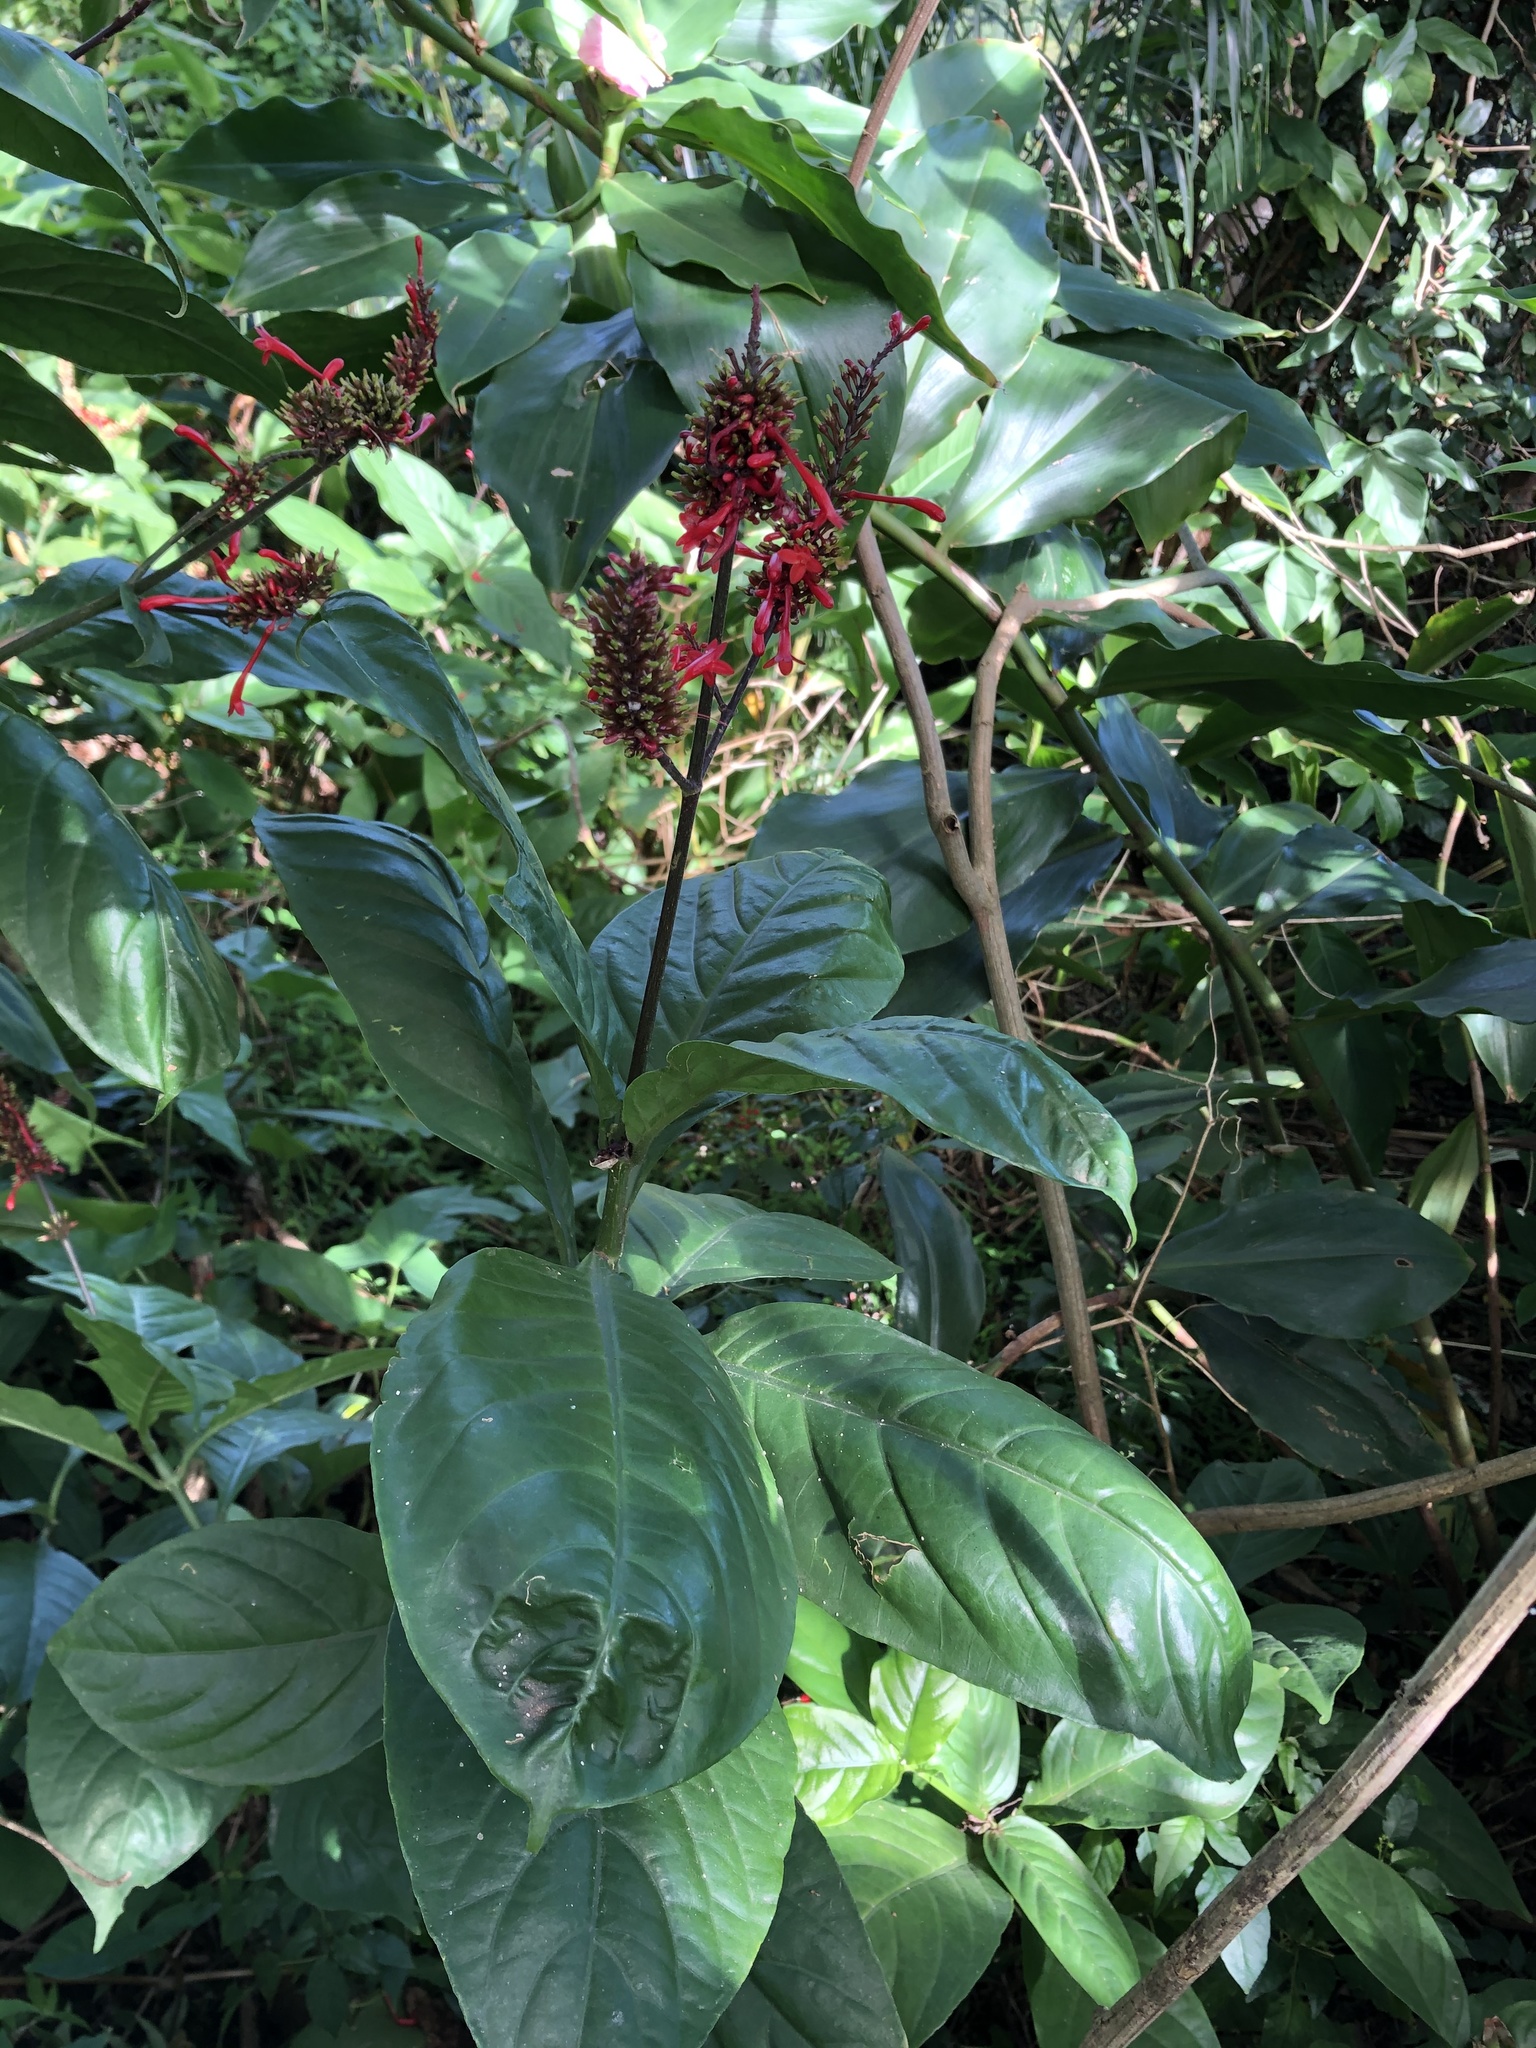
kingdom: Plantae
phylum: Tracheophyta
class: Magnoliopsida
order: Lamiales
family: Acanthaceae
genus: Odontonema
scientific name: Odontonema tubaeforme
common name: Firespike
